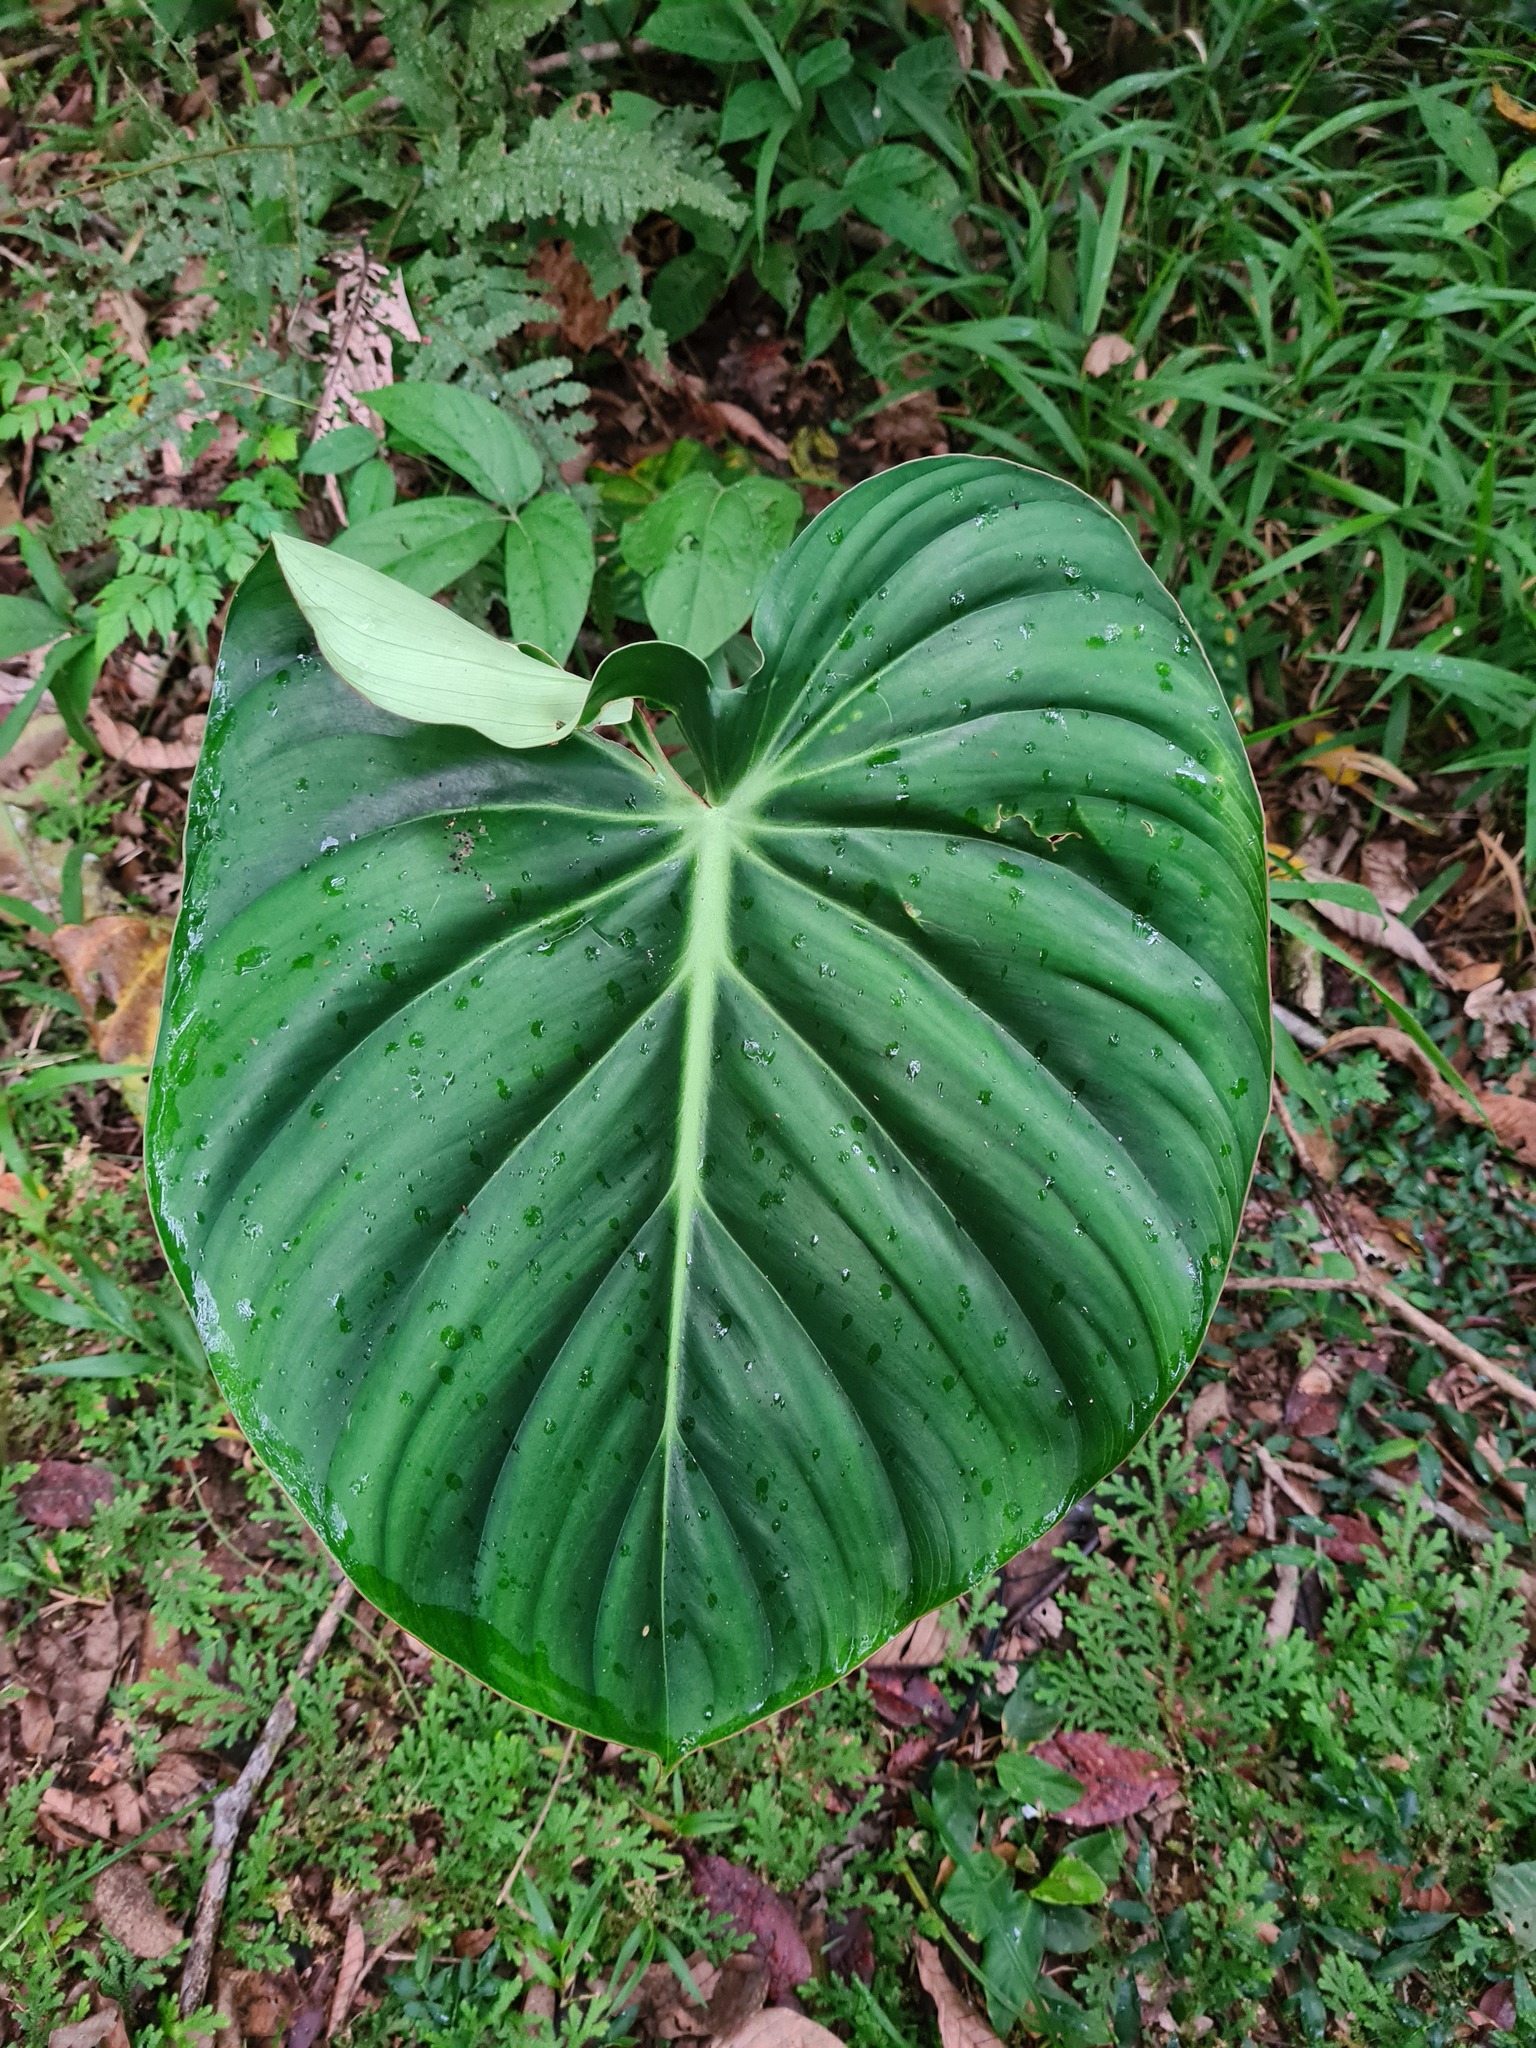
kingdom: Plantae
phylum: Tracheophyta
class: Liliopsida
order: Alismatales
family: Araceae
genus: Philodendron
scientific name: Philodendron pastazanum
